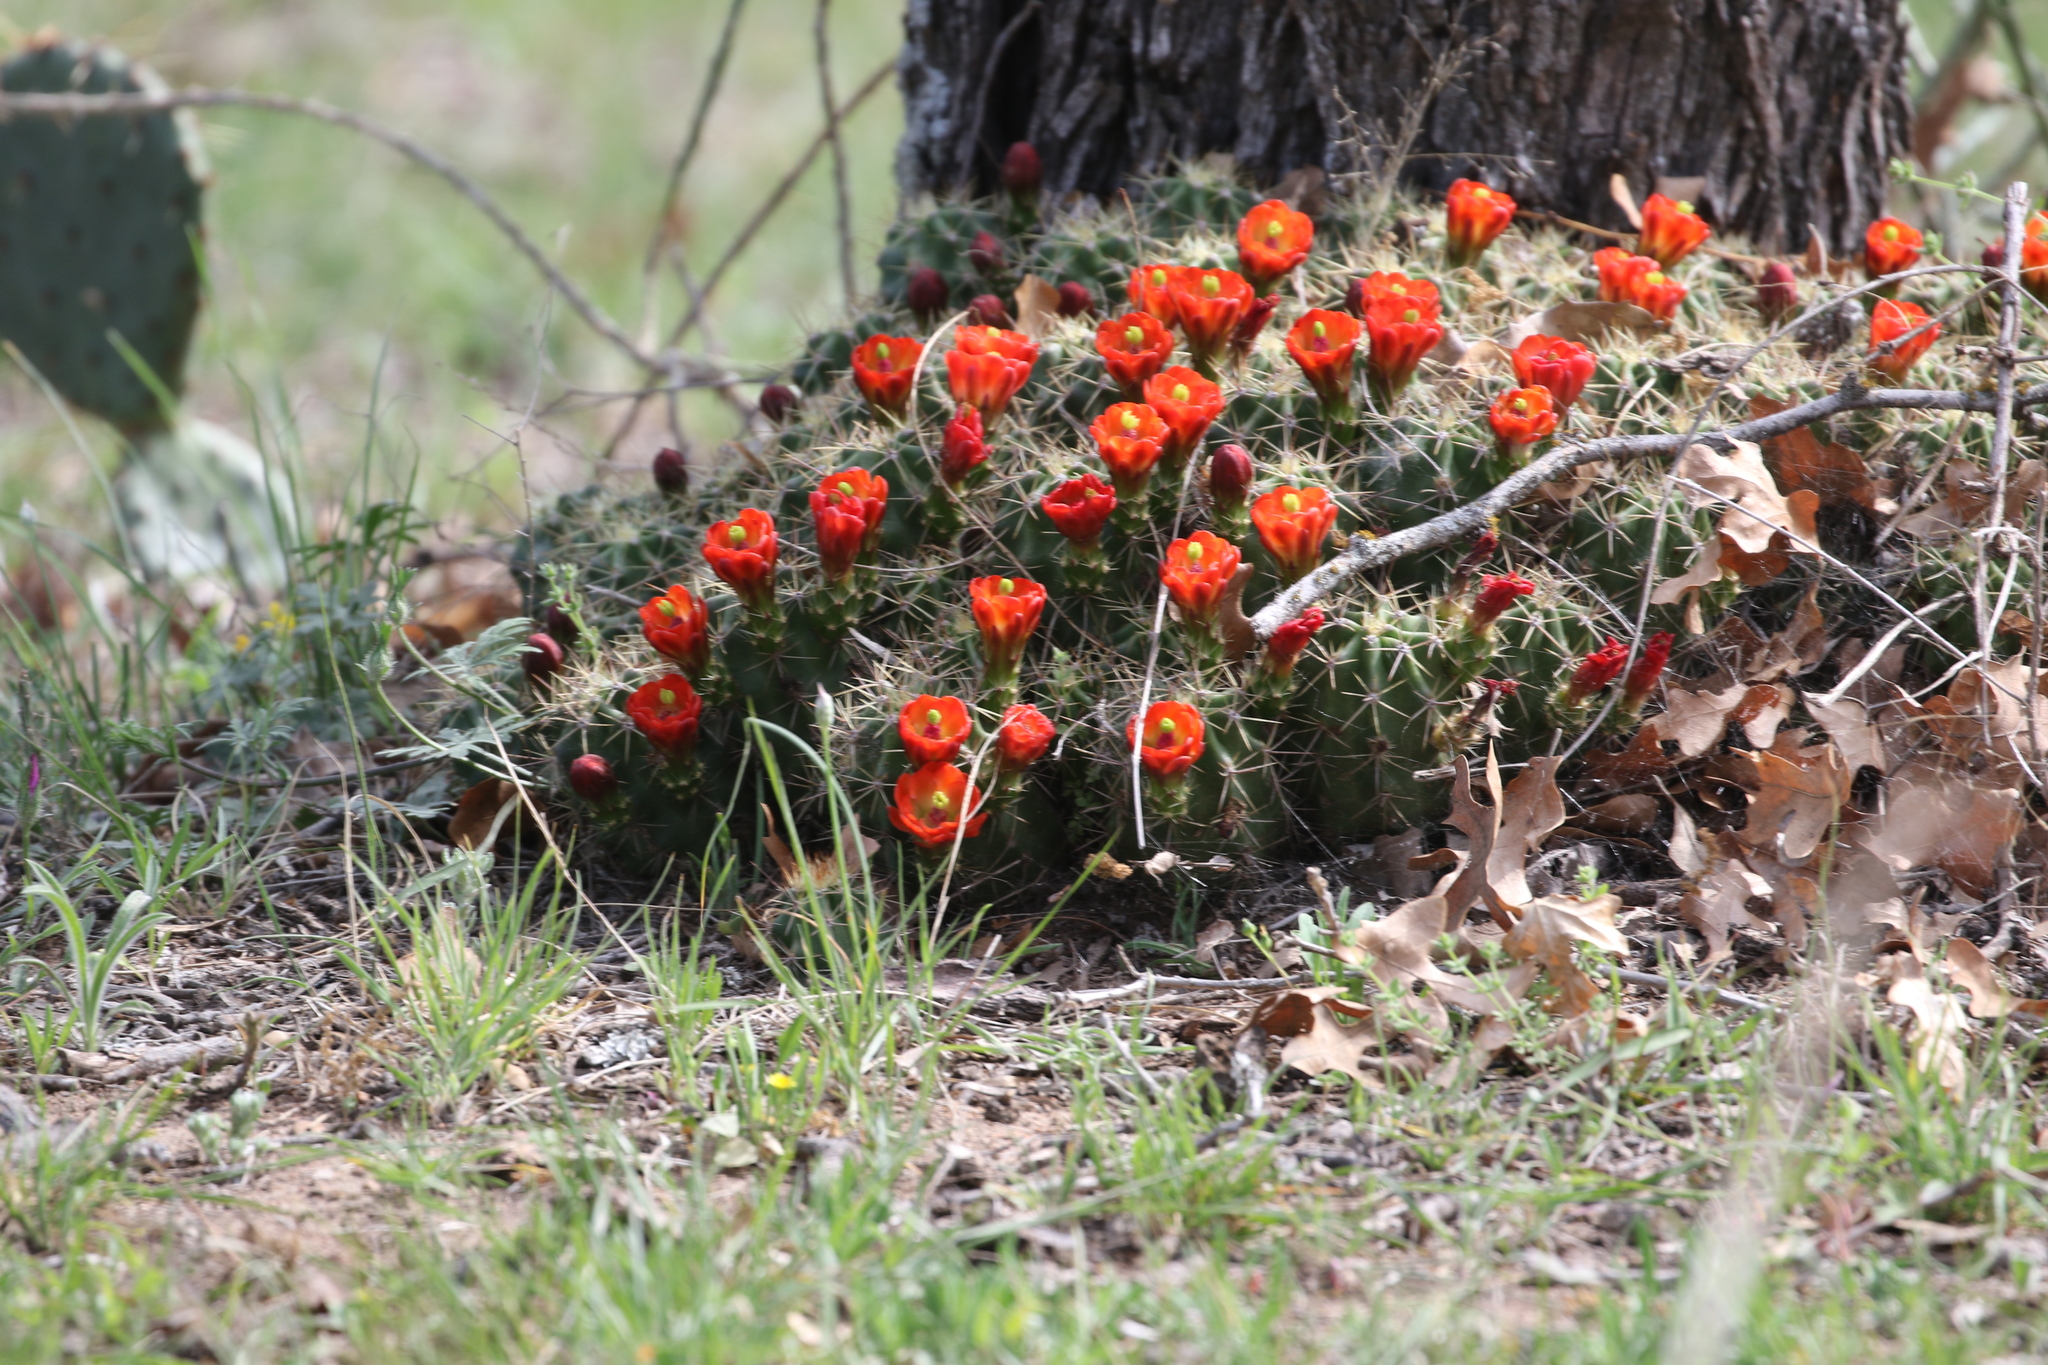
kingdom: Plantae
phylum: Tracheophyta
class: Magnoliopsida
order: Caryophyllales
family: Cactaceae
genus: Echinocereus
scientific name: Echinocereus coccineus
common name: Scarlet hedgehog cactus
